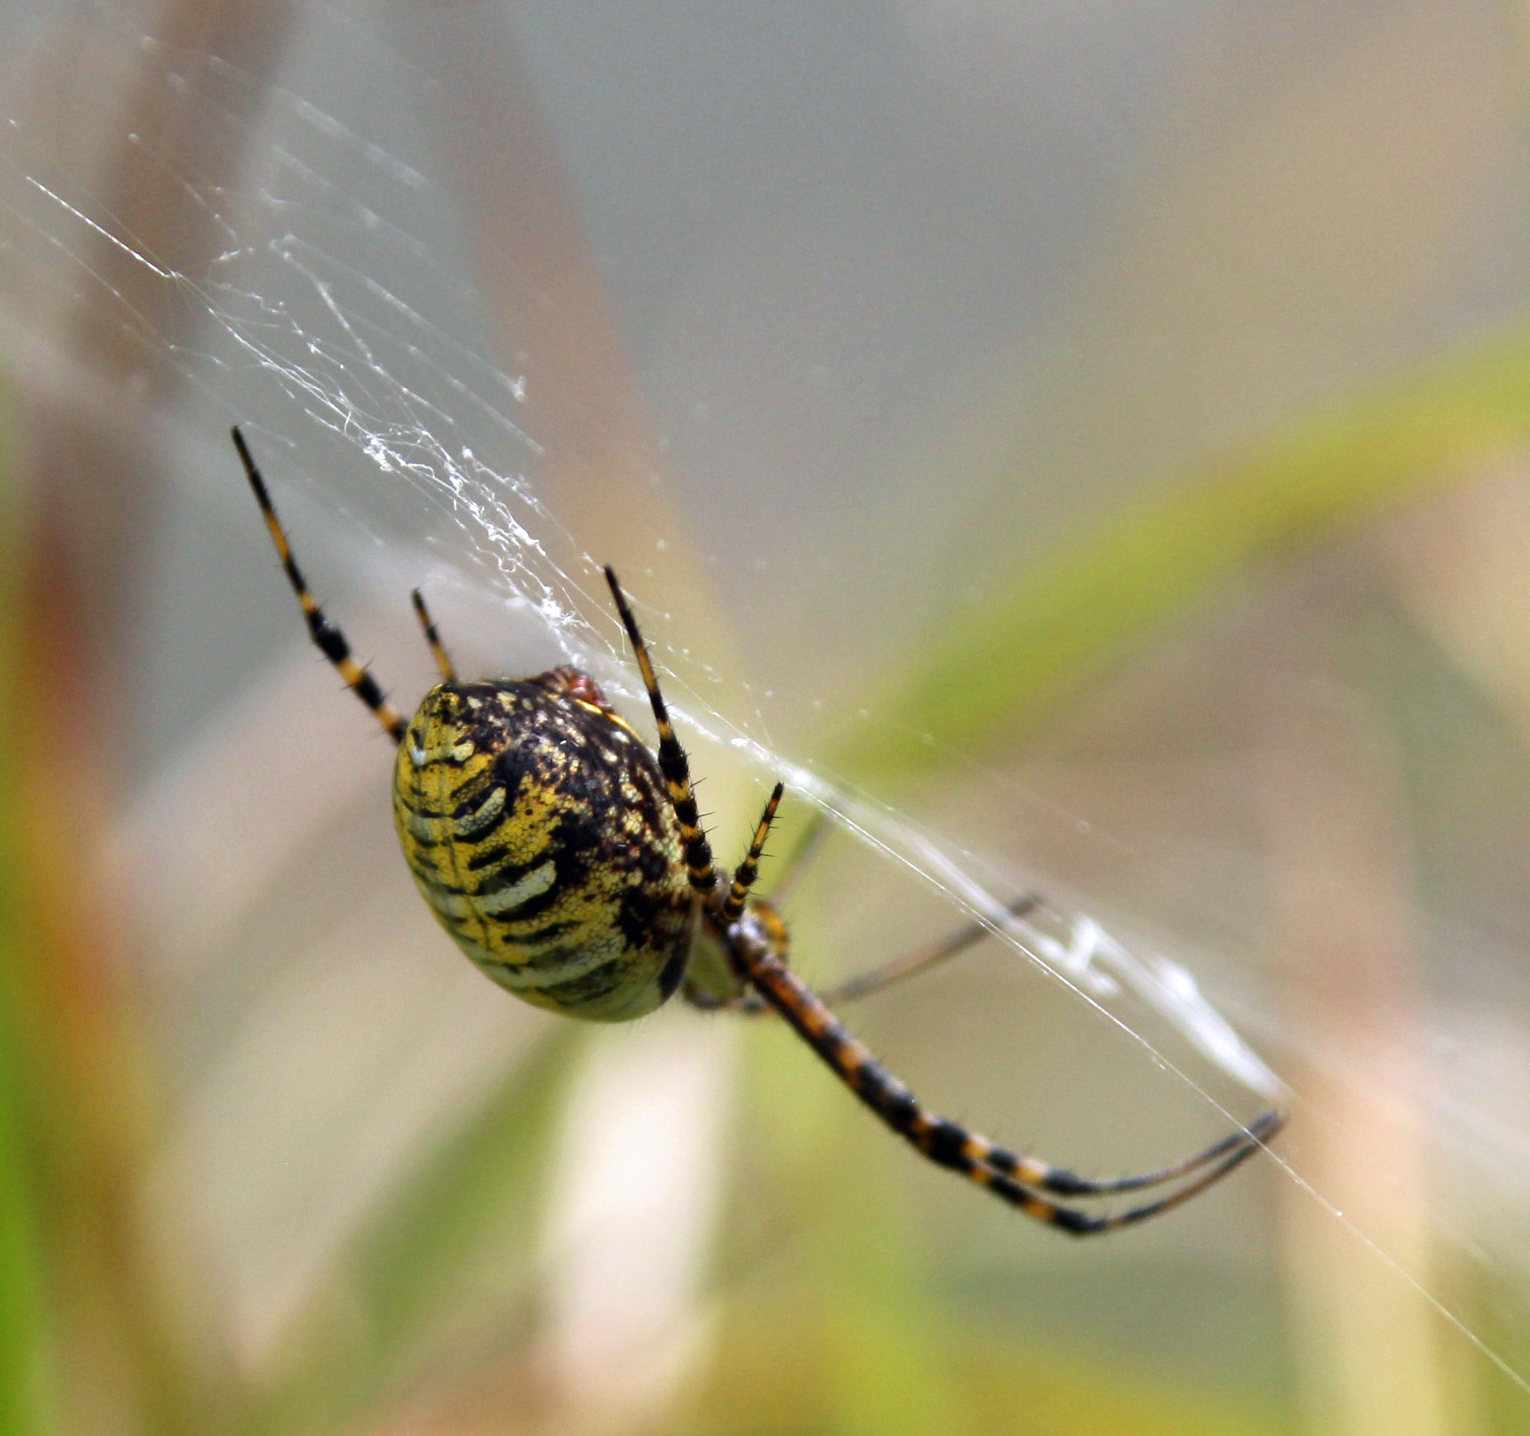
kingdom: Animalia
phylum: Arthropoda
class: Arachnida
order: Araneae
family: Araneidae
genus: Argiope
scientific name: Argiope trifasciata
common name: Banded garden spider
